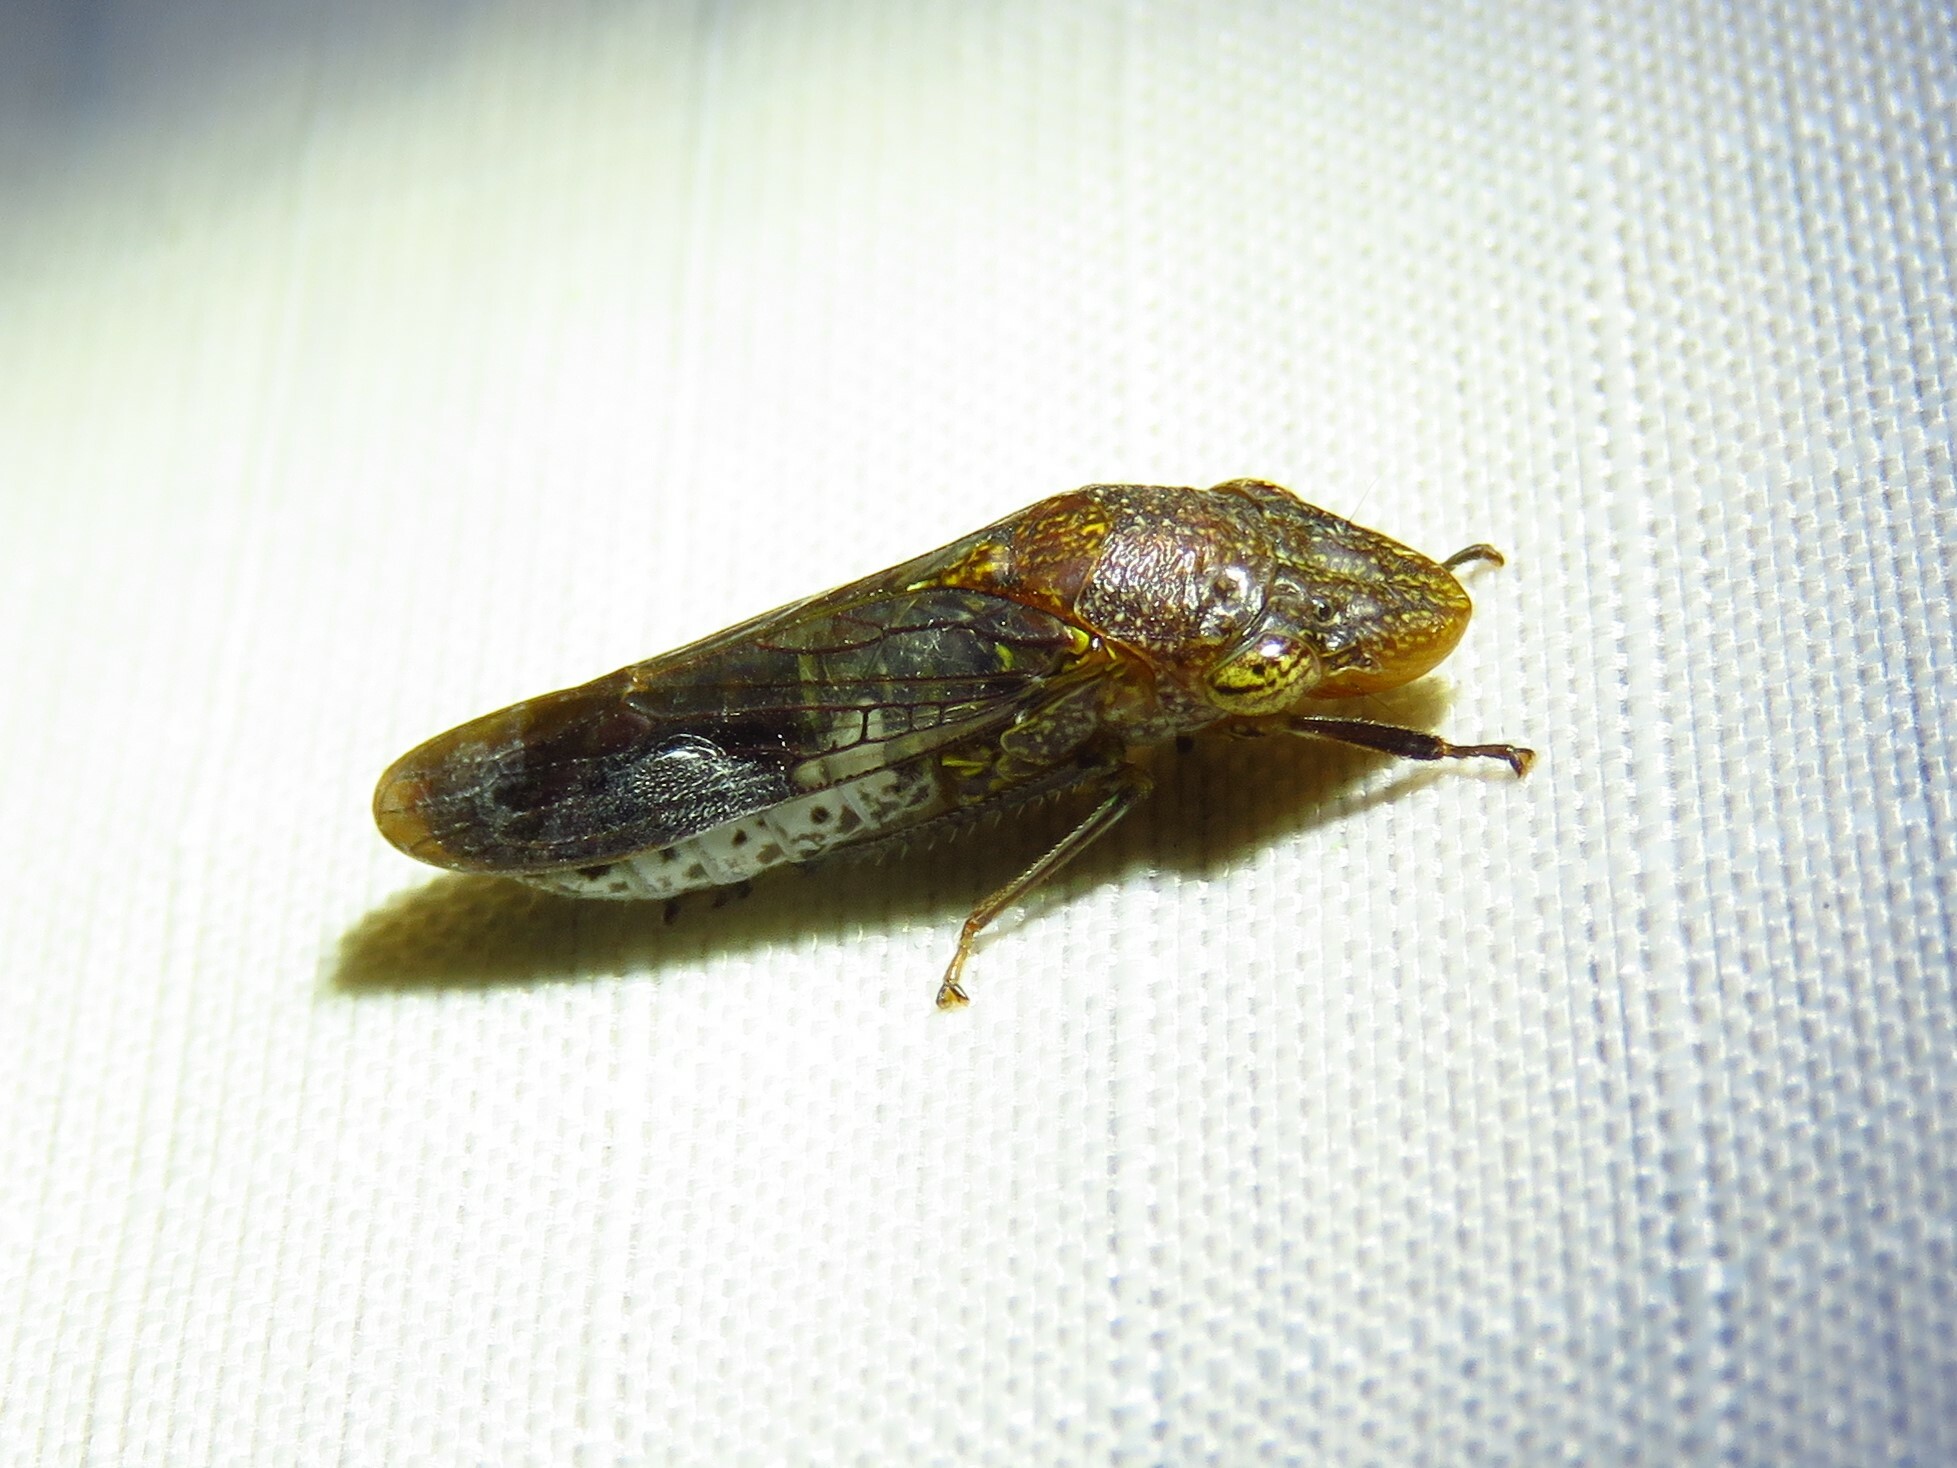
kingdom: Animalia
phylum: Arthropoda
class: Insecta
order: Hemiptera
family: Cicadellidae
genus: Homalodisca
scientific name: Homalodisca vitripennis
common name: Glassy-winged sharpshooter
